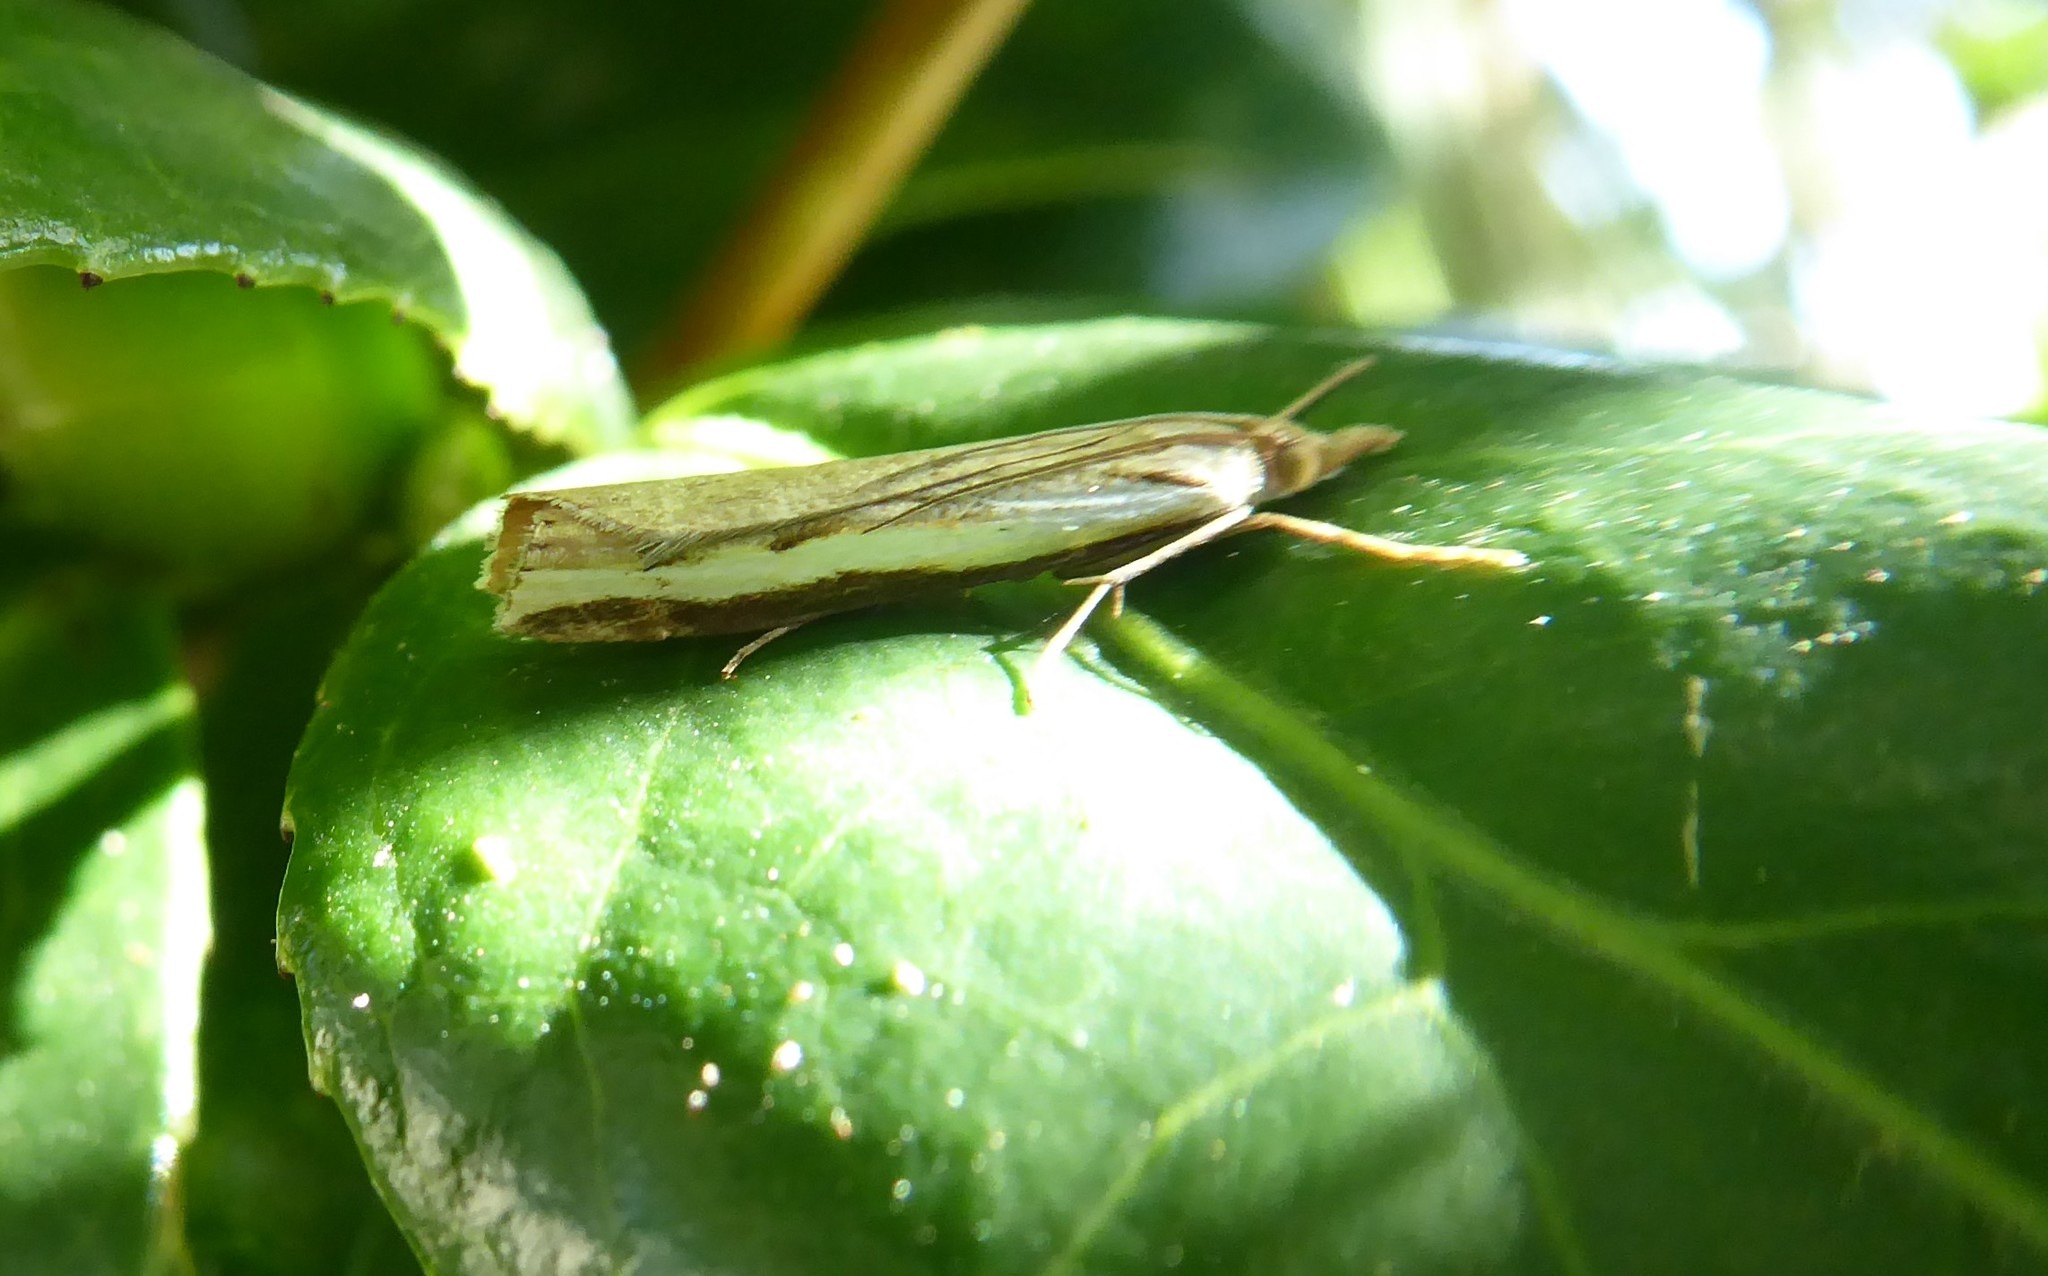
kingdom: Animalia
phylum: Arthropoda
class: Insecta
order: Lepidoptera
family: Crambidae
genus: Orocrambus
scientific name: Orocrambus flexuosellus
